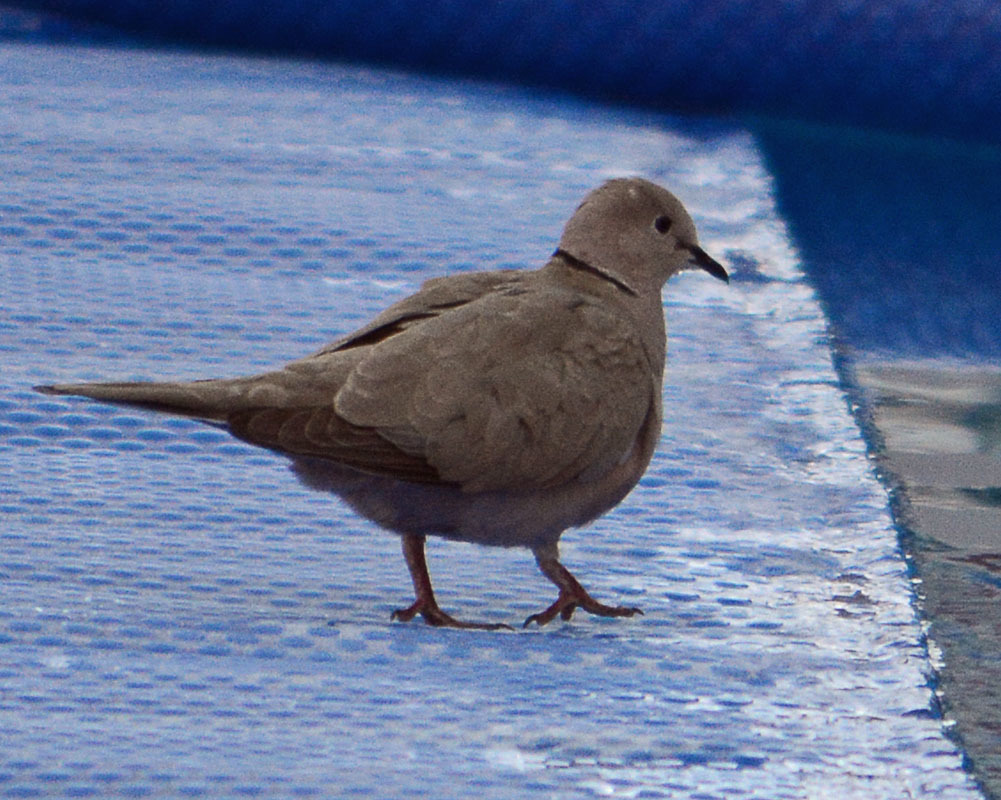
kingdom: Animalia
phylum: Chordata
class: Aves
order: Columbiformes
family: Columbidae
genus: Streptopelia
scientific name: Streptopelia decaocto
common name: Eurasian collared dove
